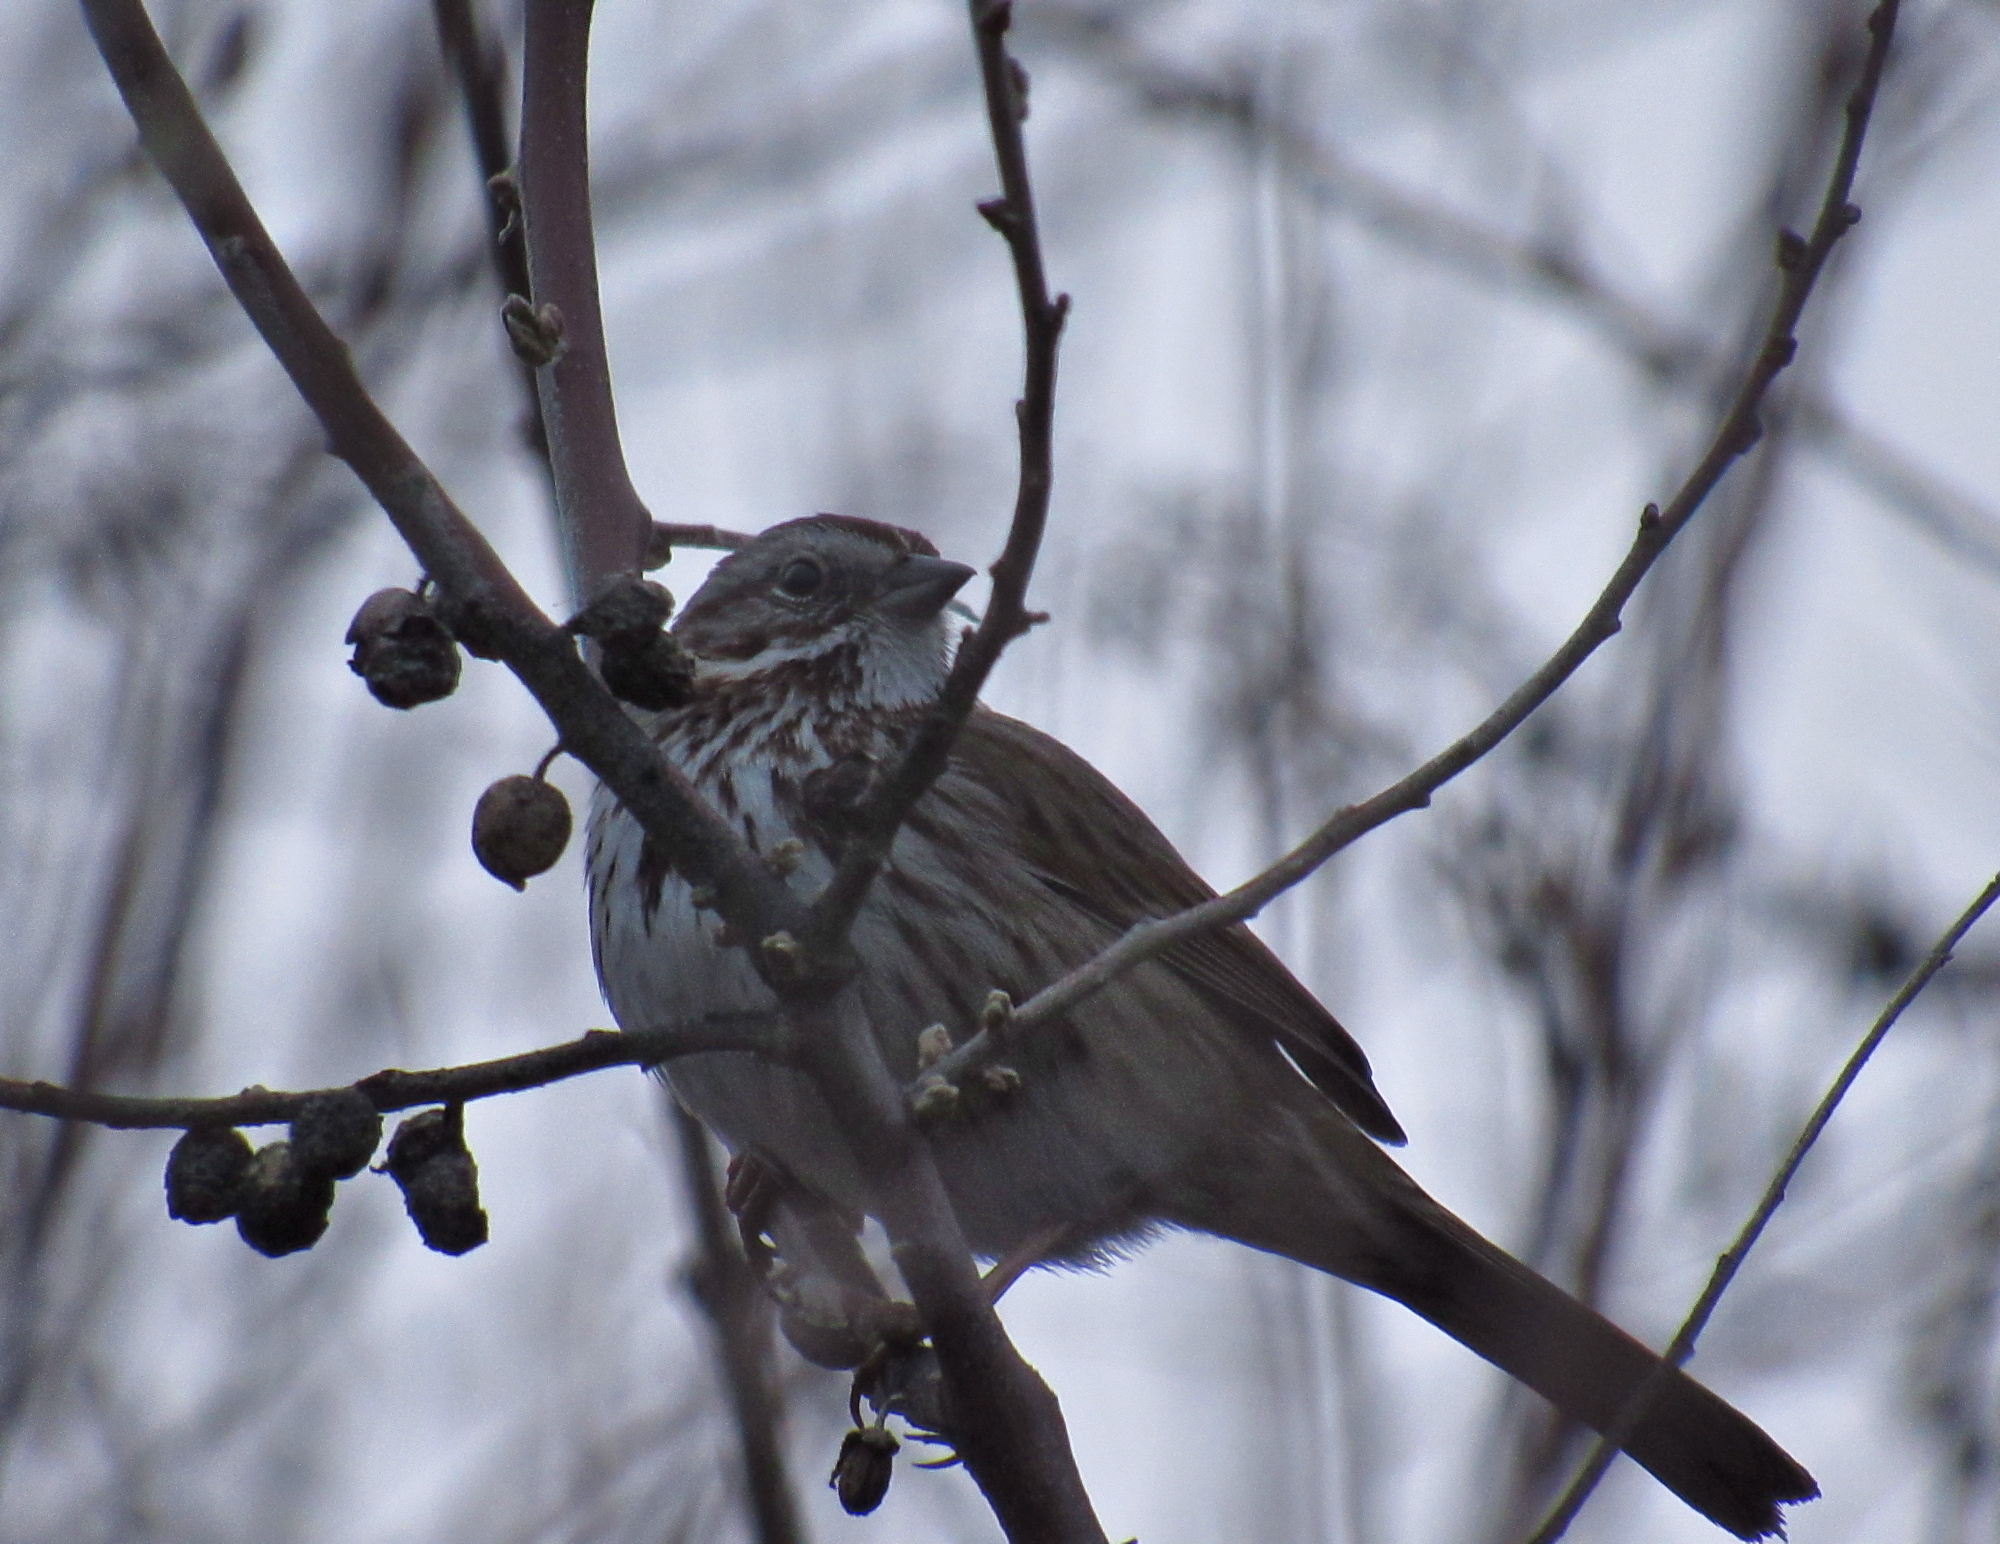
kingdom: Animalia
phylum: Chordata
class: Aves
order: Passeriformes
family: Passerellidae
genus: Melospiza
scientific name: Melospiza melodia
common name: Song sparrow
